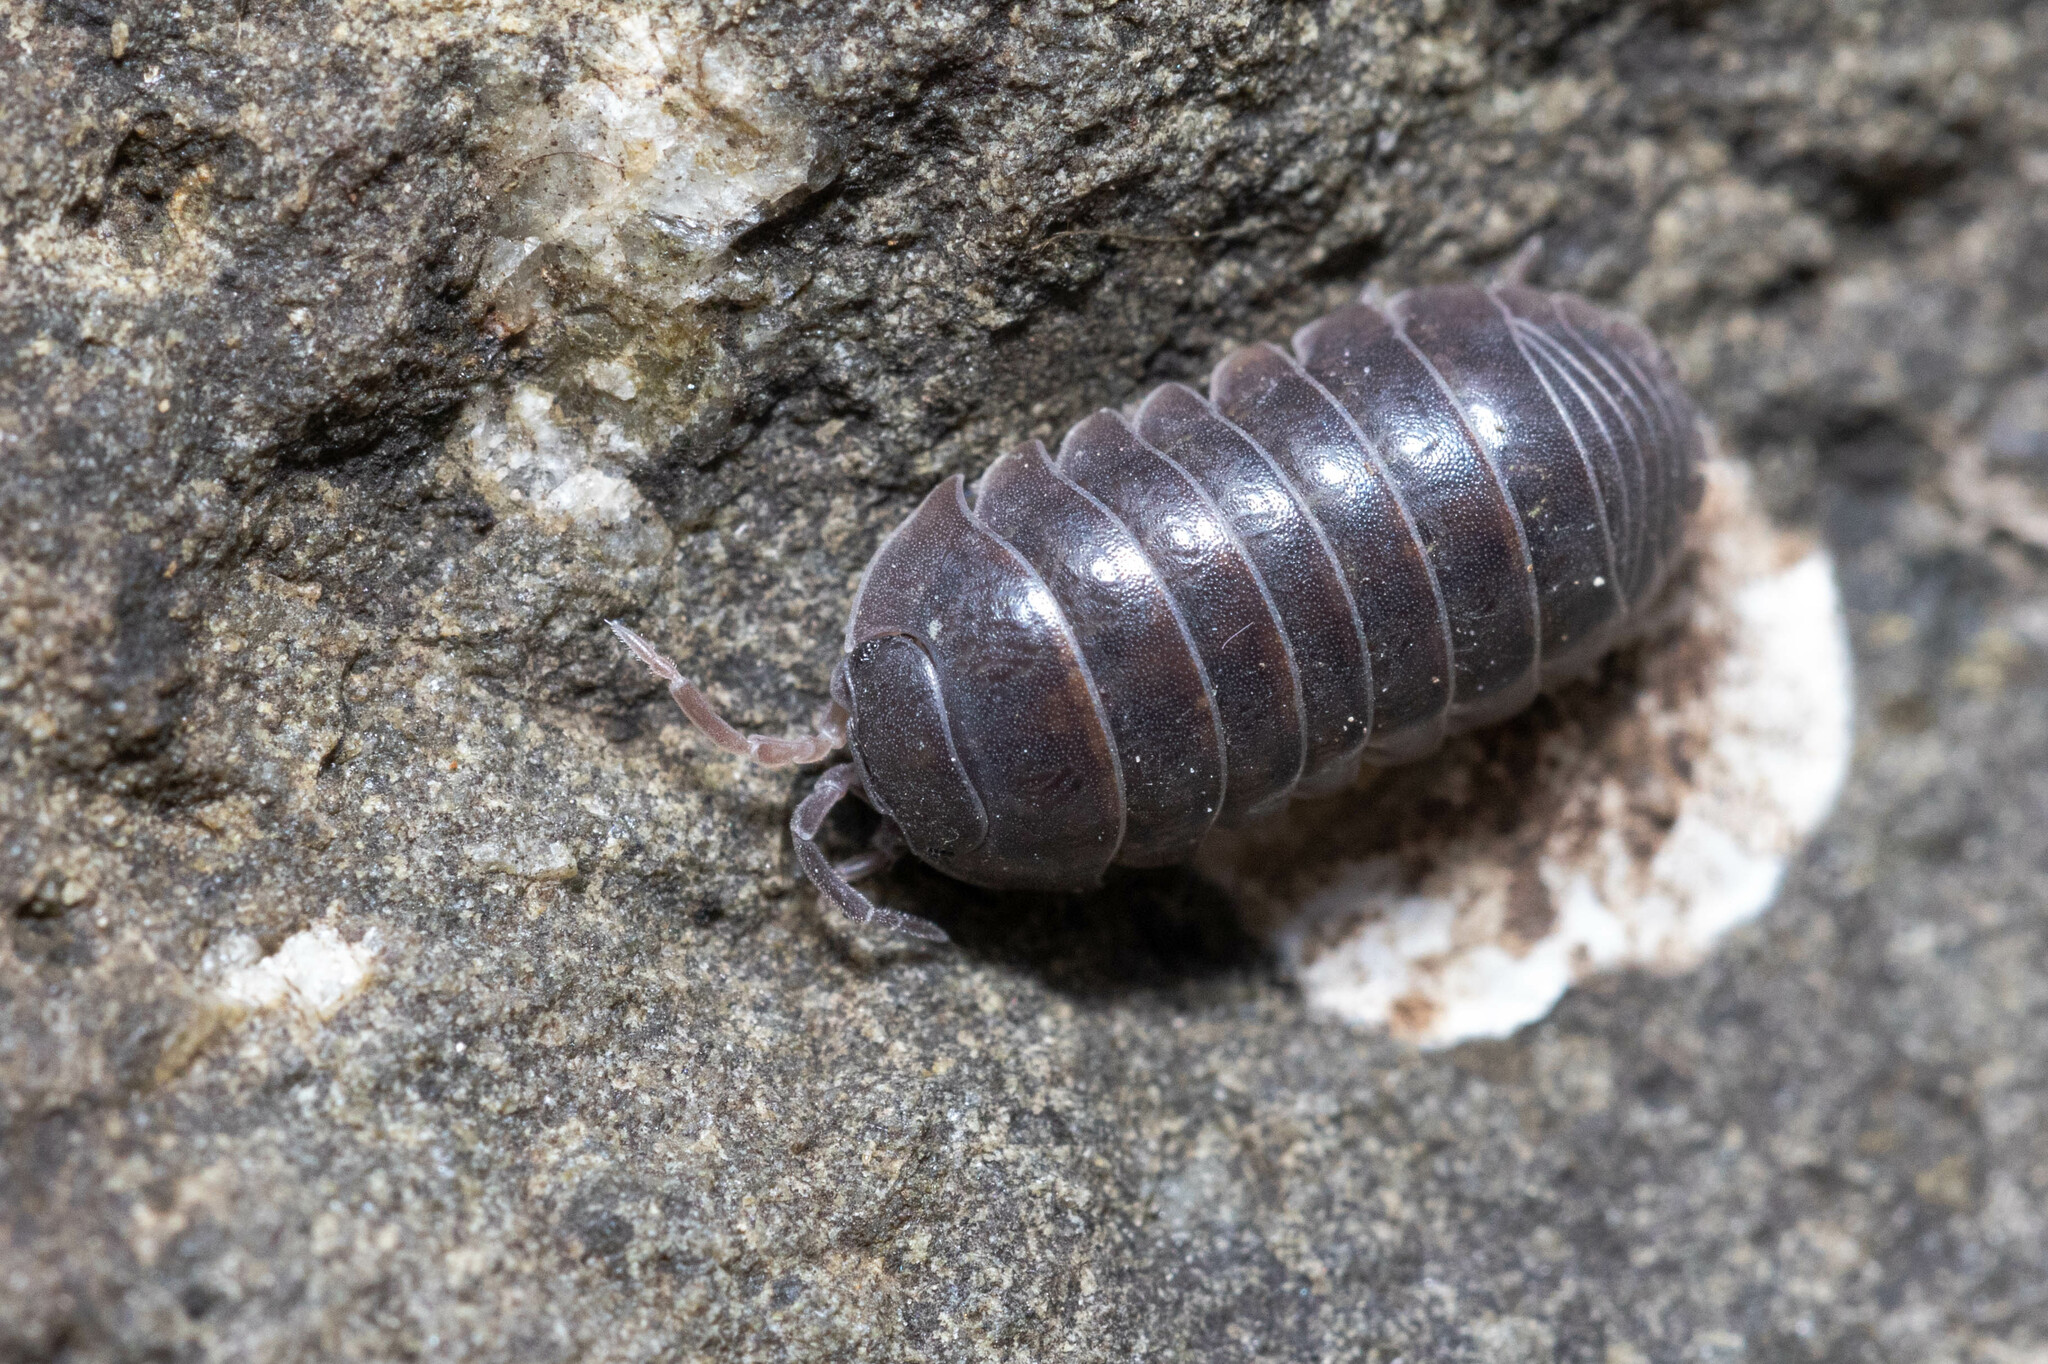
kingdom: Animalia
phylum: Arthropoda
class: Malacostraca
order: Isopoda
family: Armadillidiidae
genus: Armadillidium
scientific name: Armadillidium vulgare
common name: Common pill woodlouse
